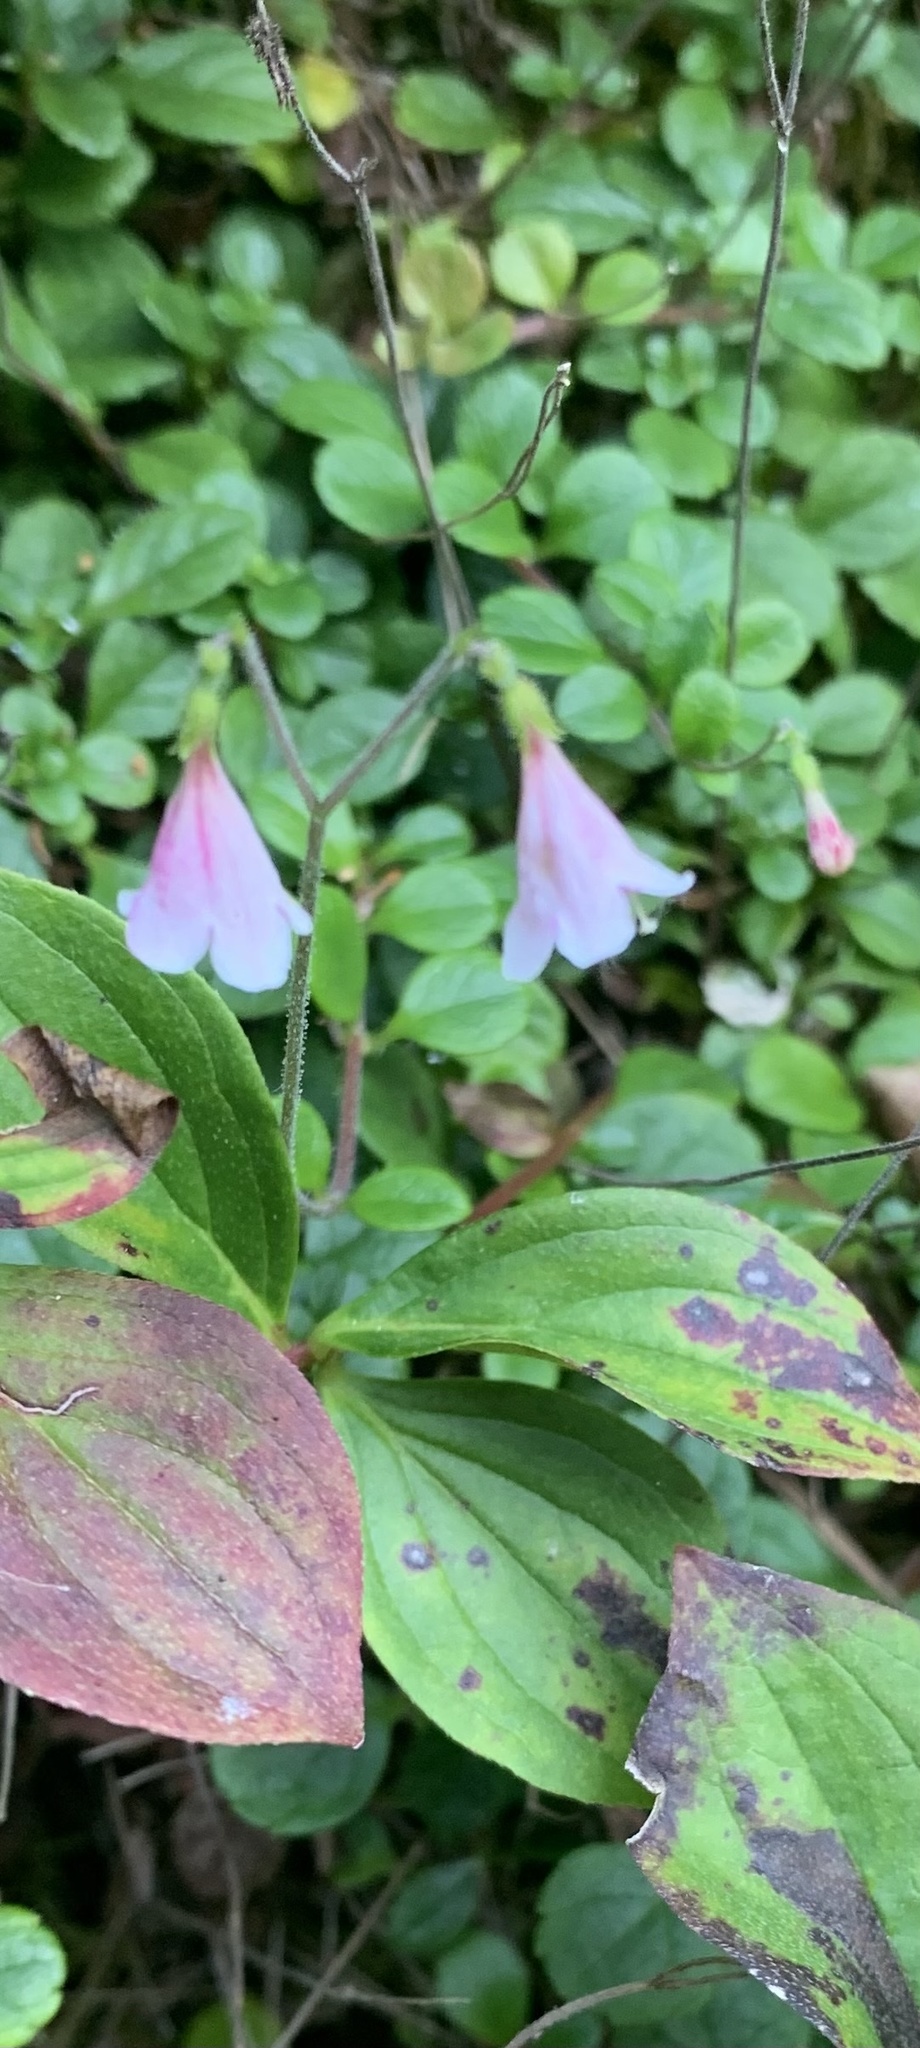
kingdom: Plantae
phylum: Tracheophyta
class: Magnoliopsida
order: Dipsacales
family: Caprifoliaceae
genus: Linnaea
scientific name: Linnaea borealis
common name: Twinflower
